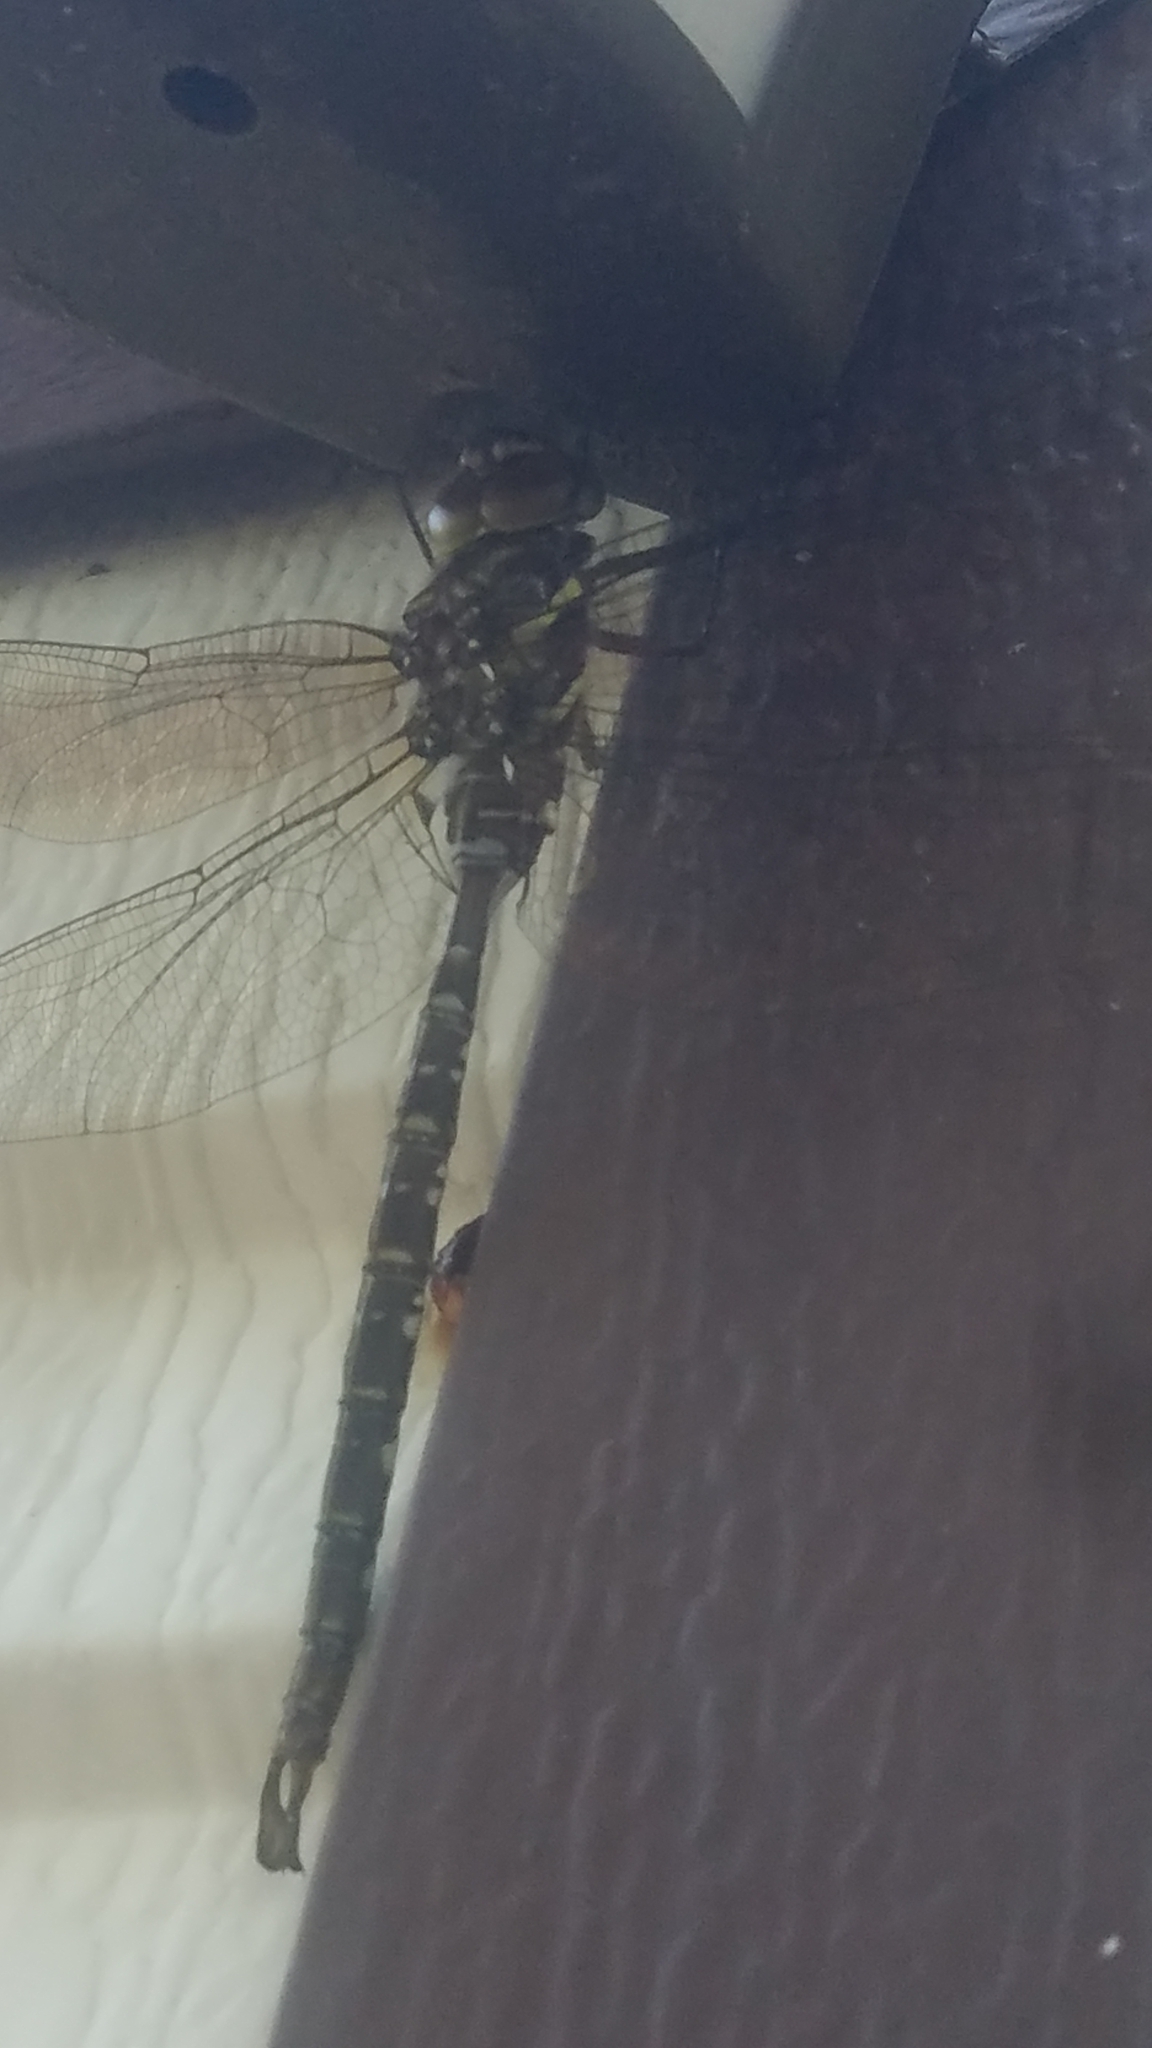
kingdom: Animalia
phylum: Arthropoda
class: Insecta
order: Odonata
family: Aeshnidae
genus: Aeshna
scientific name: Aeshna umbrosa
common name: Shadow darner
